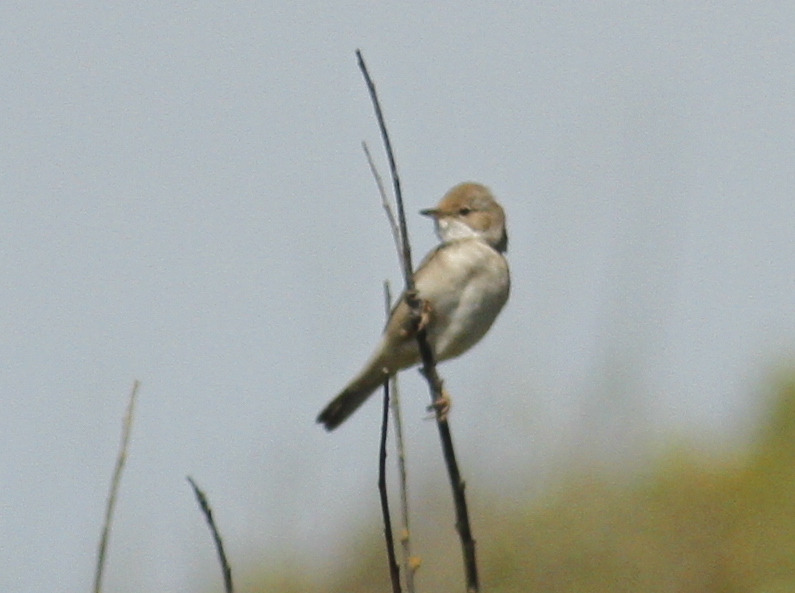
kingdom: Animalia
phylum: Chordata
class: Aves
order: Passeriformes
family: Sylviidae
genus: Sylvia
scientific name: Sylvia communis
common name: Common whitethroat
